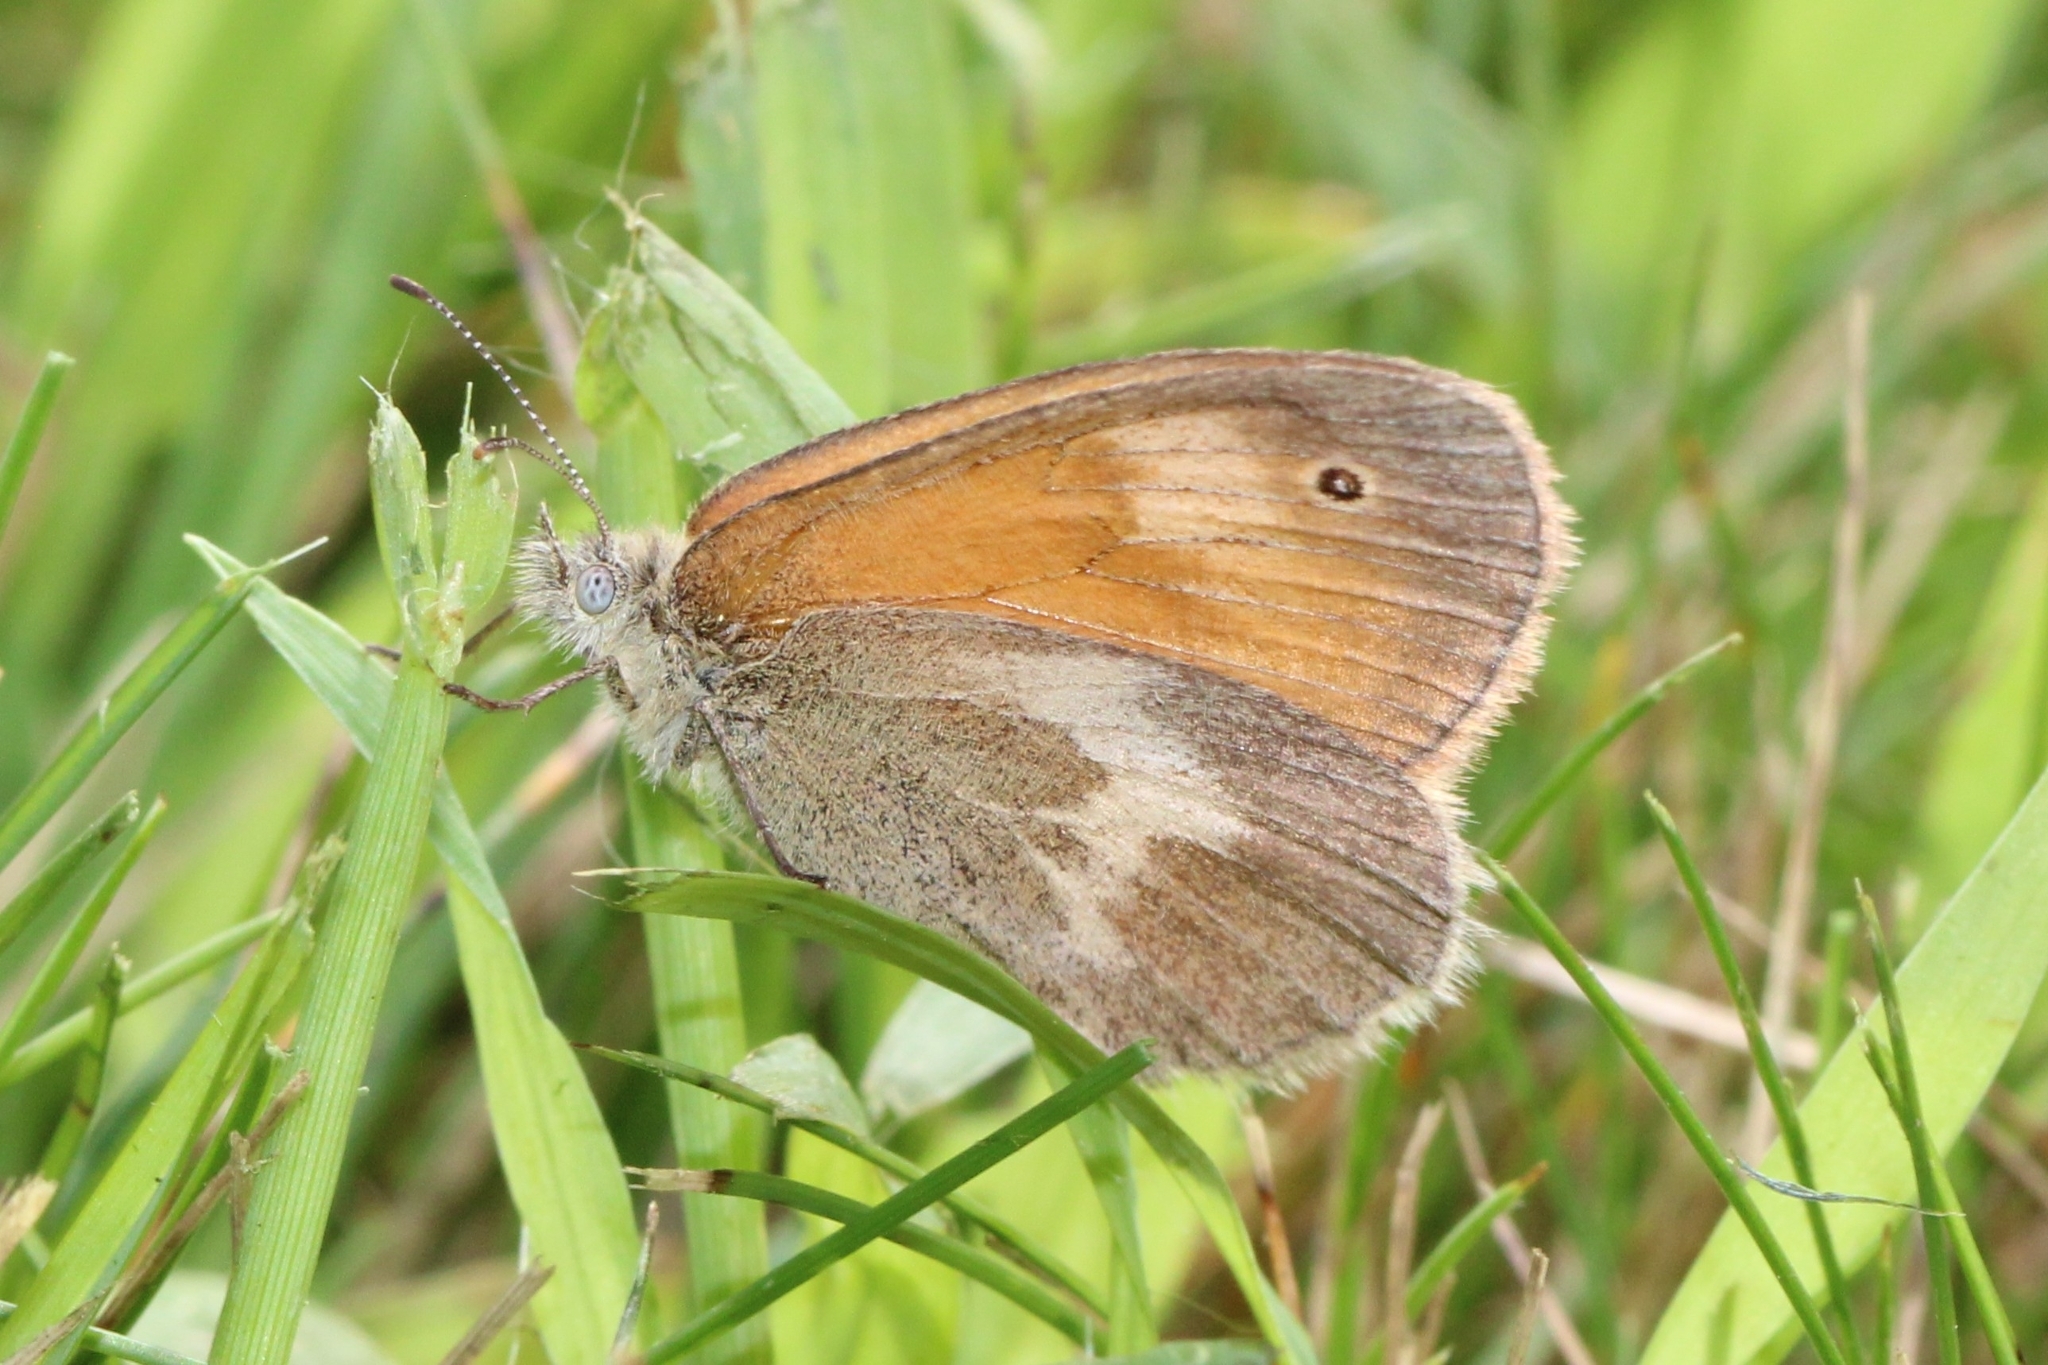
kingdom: Animalia
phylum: Arthropoda
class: Insecta
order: Lepidoptera
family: Nymphalidae
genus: Coenonympha
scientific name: Coenonympha california
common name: Common ringlet
